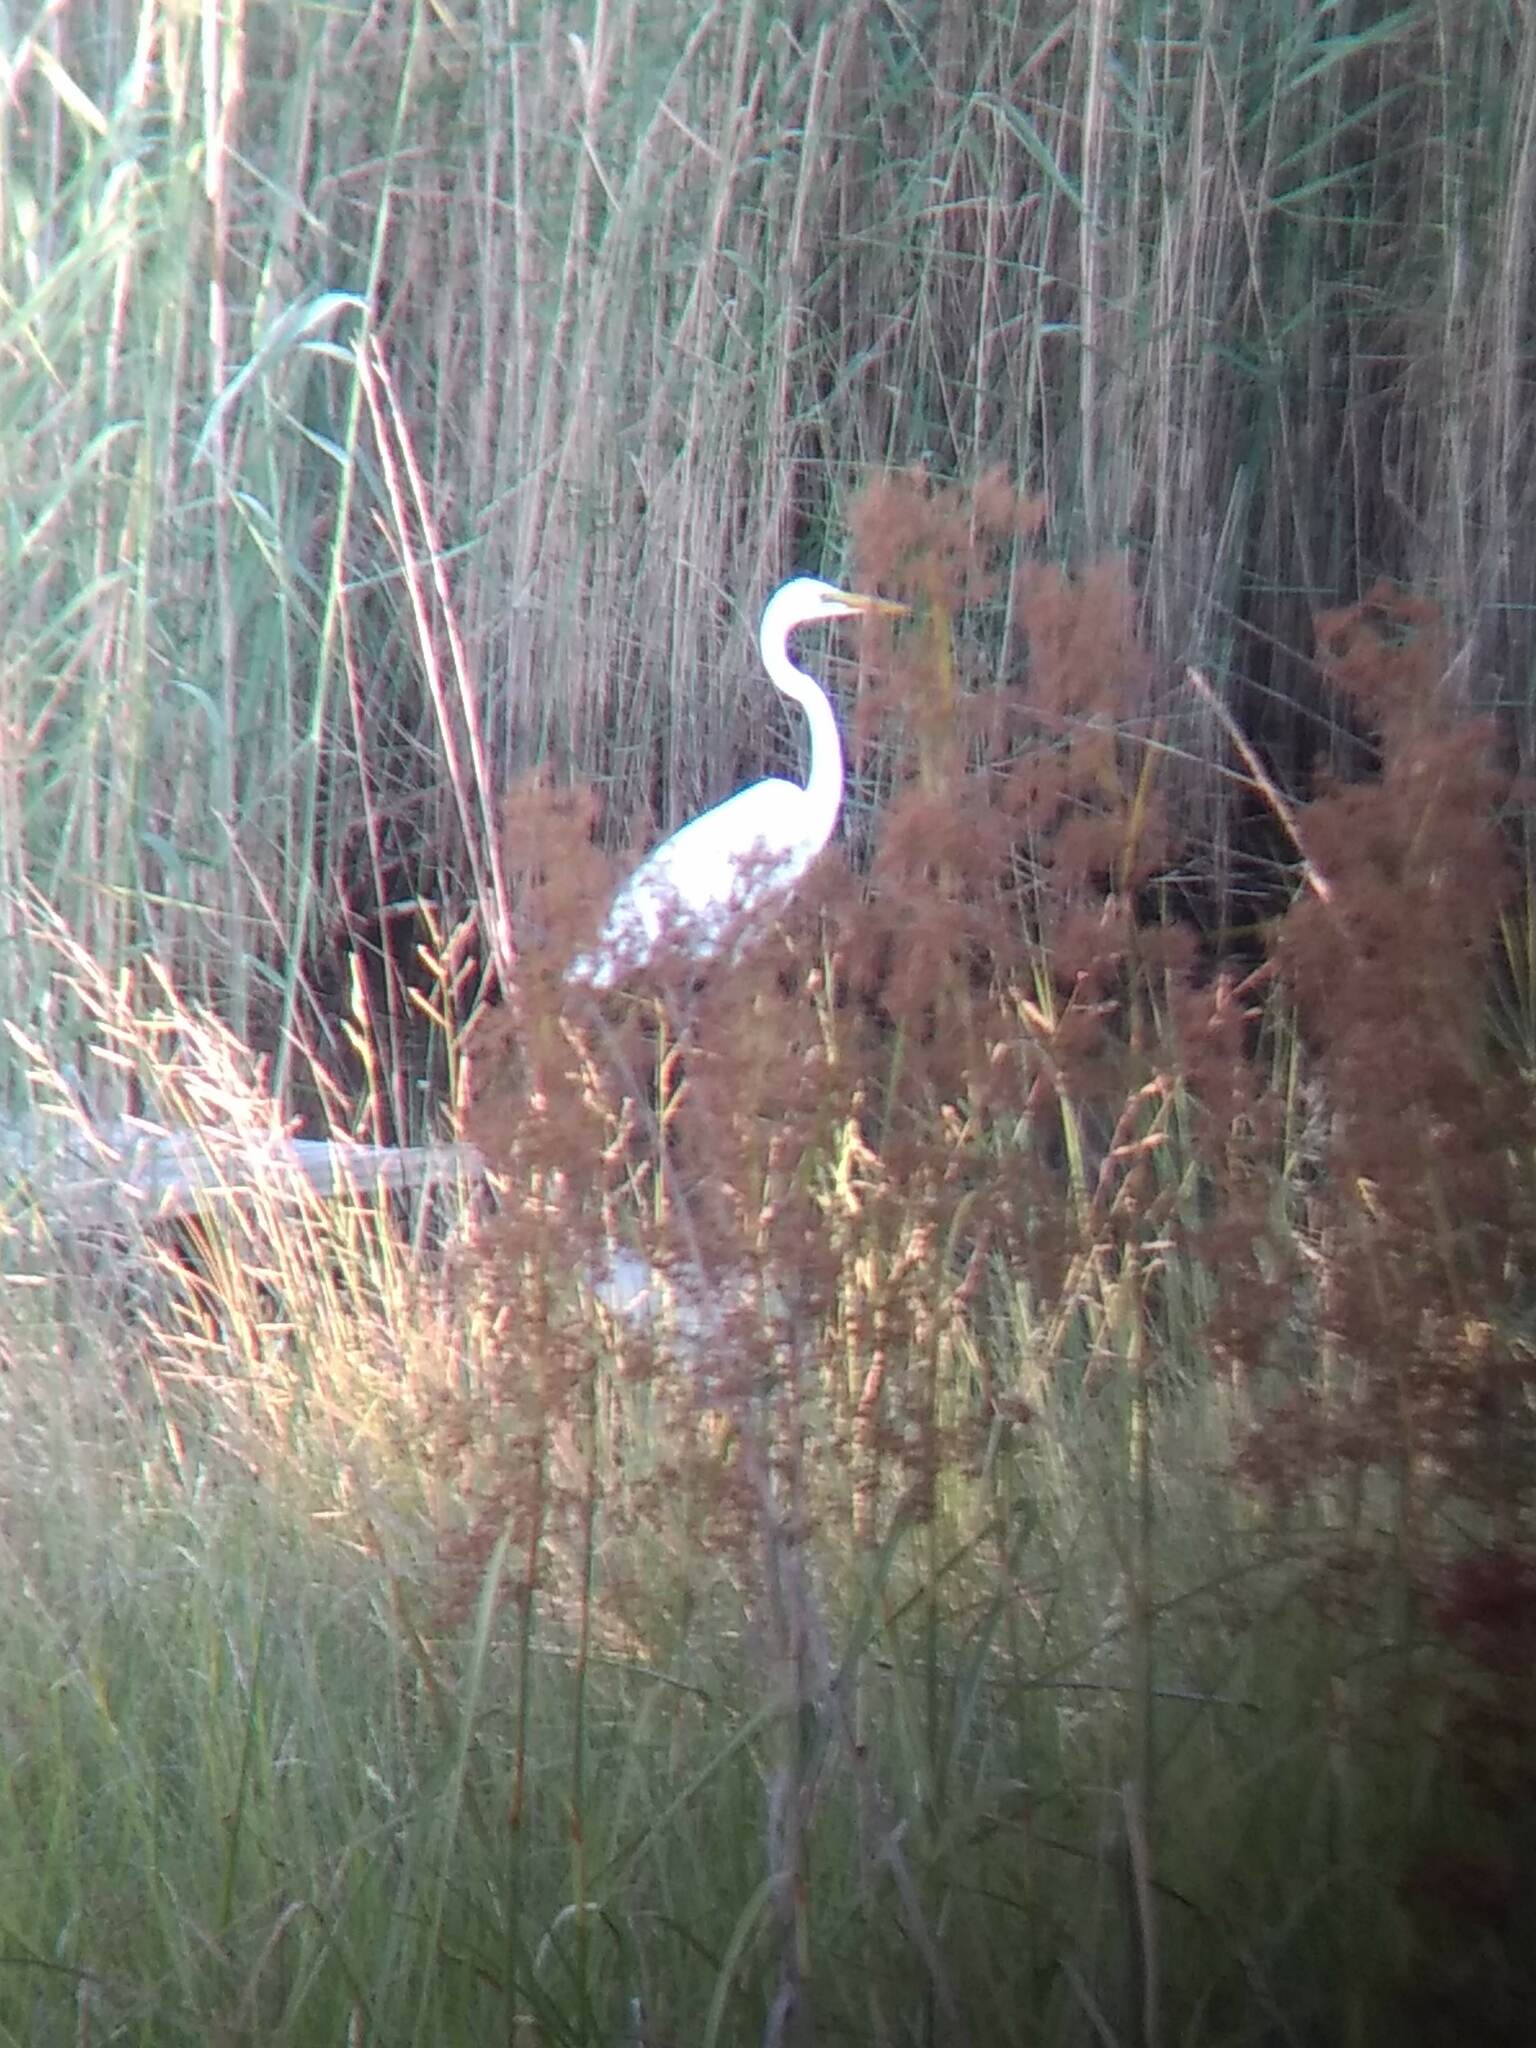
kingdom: Animalia
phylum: Chordata
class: Aves
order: Pelecaniformes
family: Ardeidae
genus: Ardea
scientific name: Ardea alba
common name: Great egret
